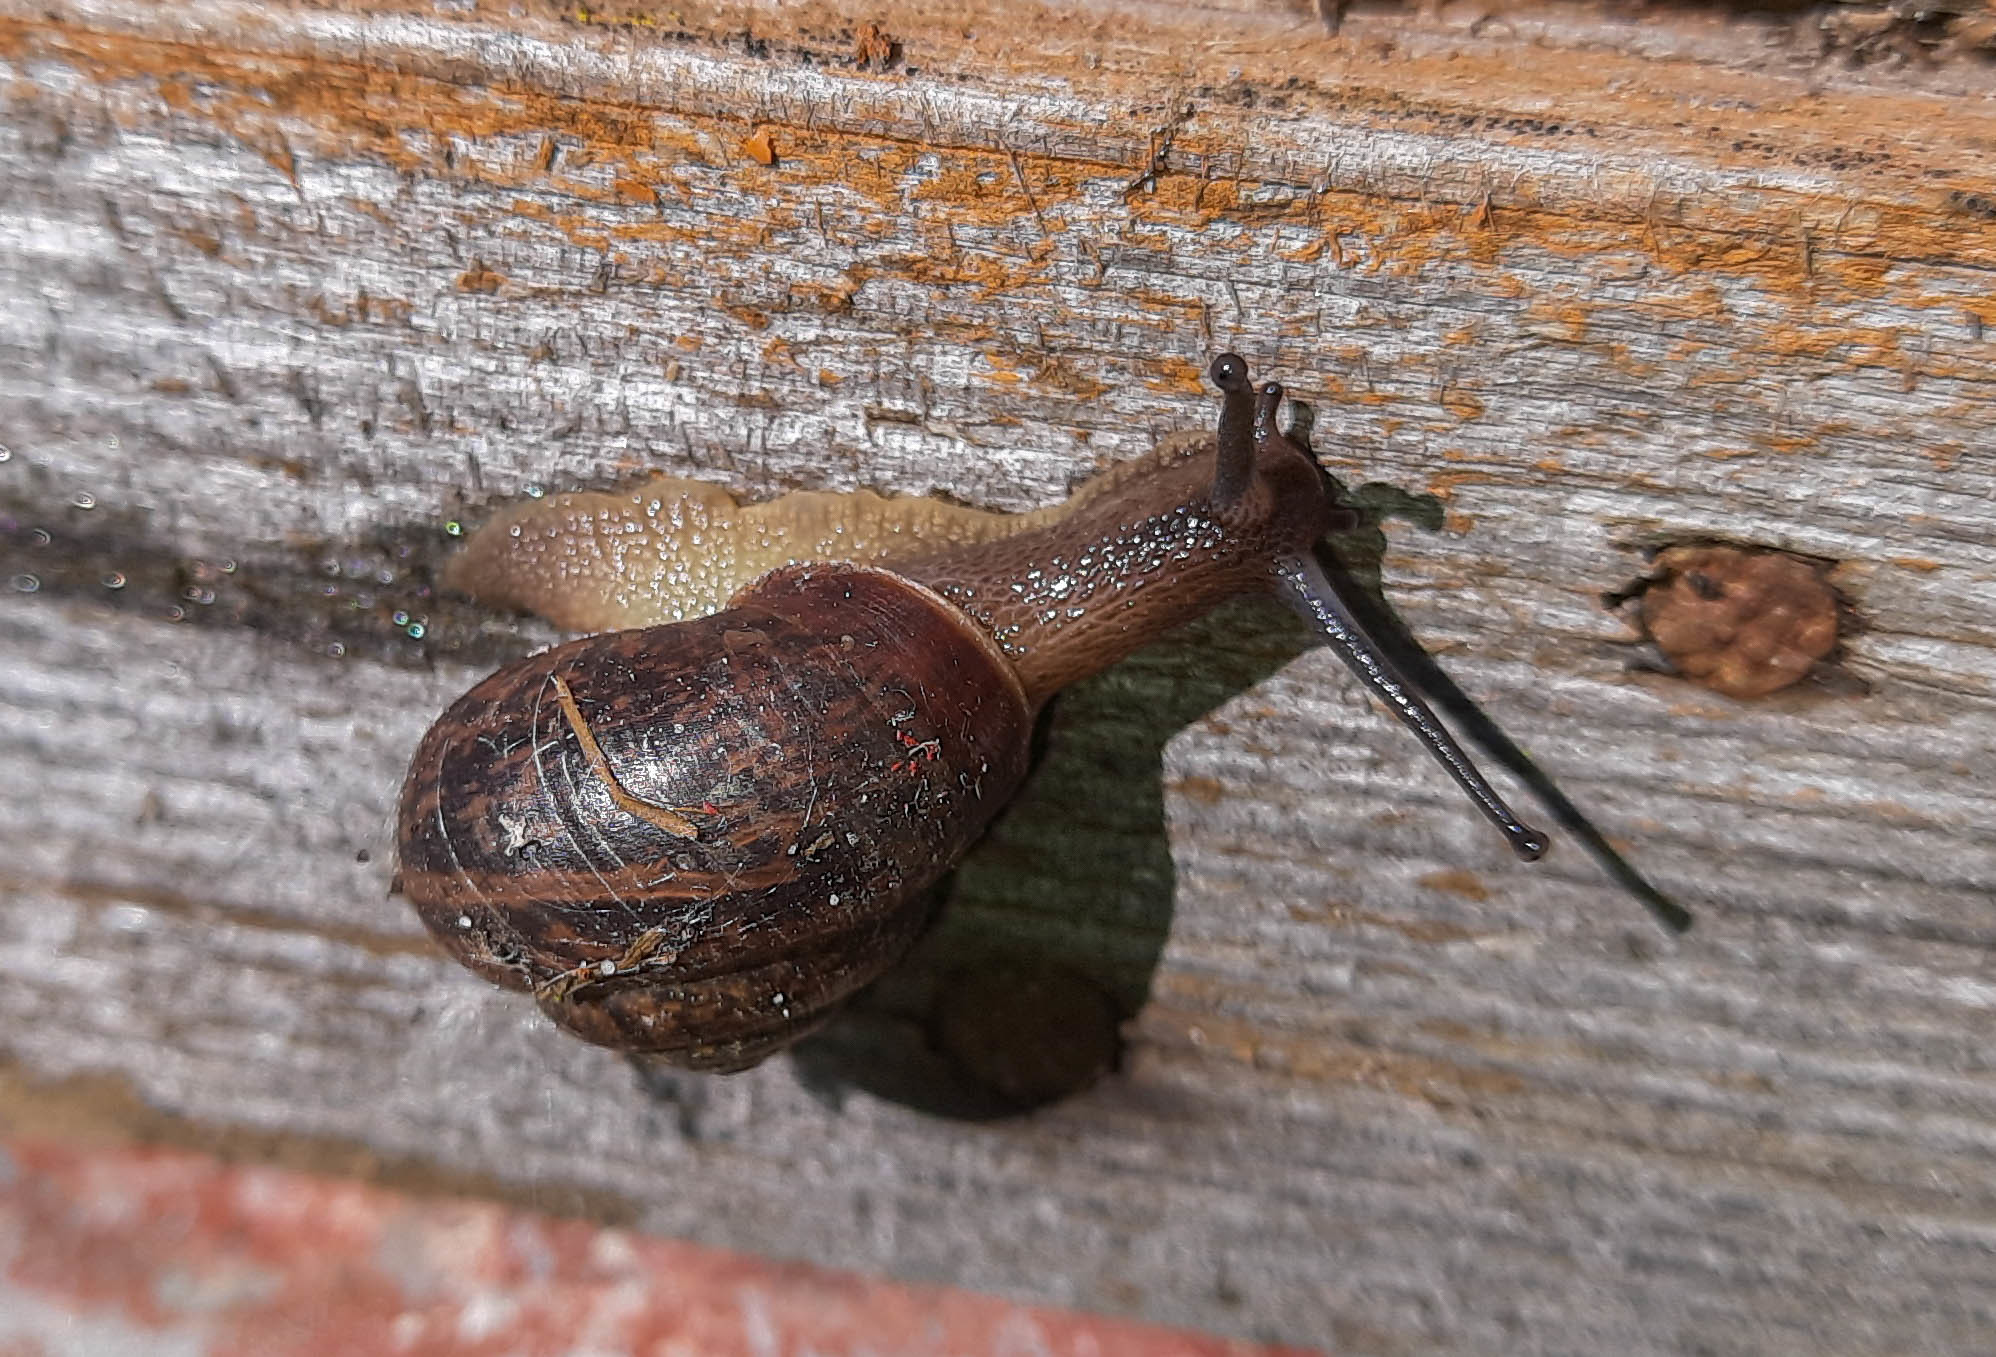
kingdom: Animalia
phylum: Mollusca
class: Gastropoda
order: Stylommatophora
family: Camaenidae
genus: Fruticicola
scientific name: Fruticicola fruticum
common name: Bush snail
